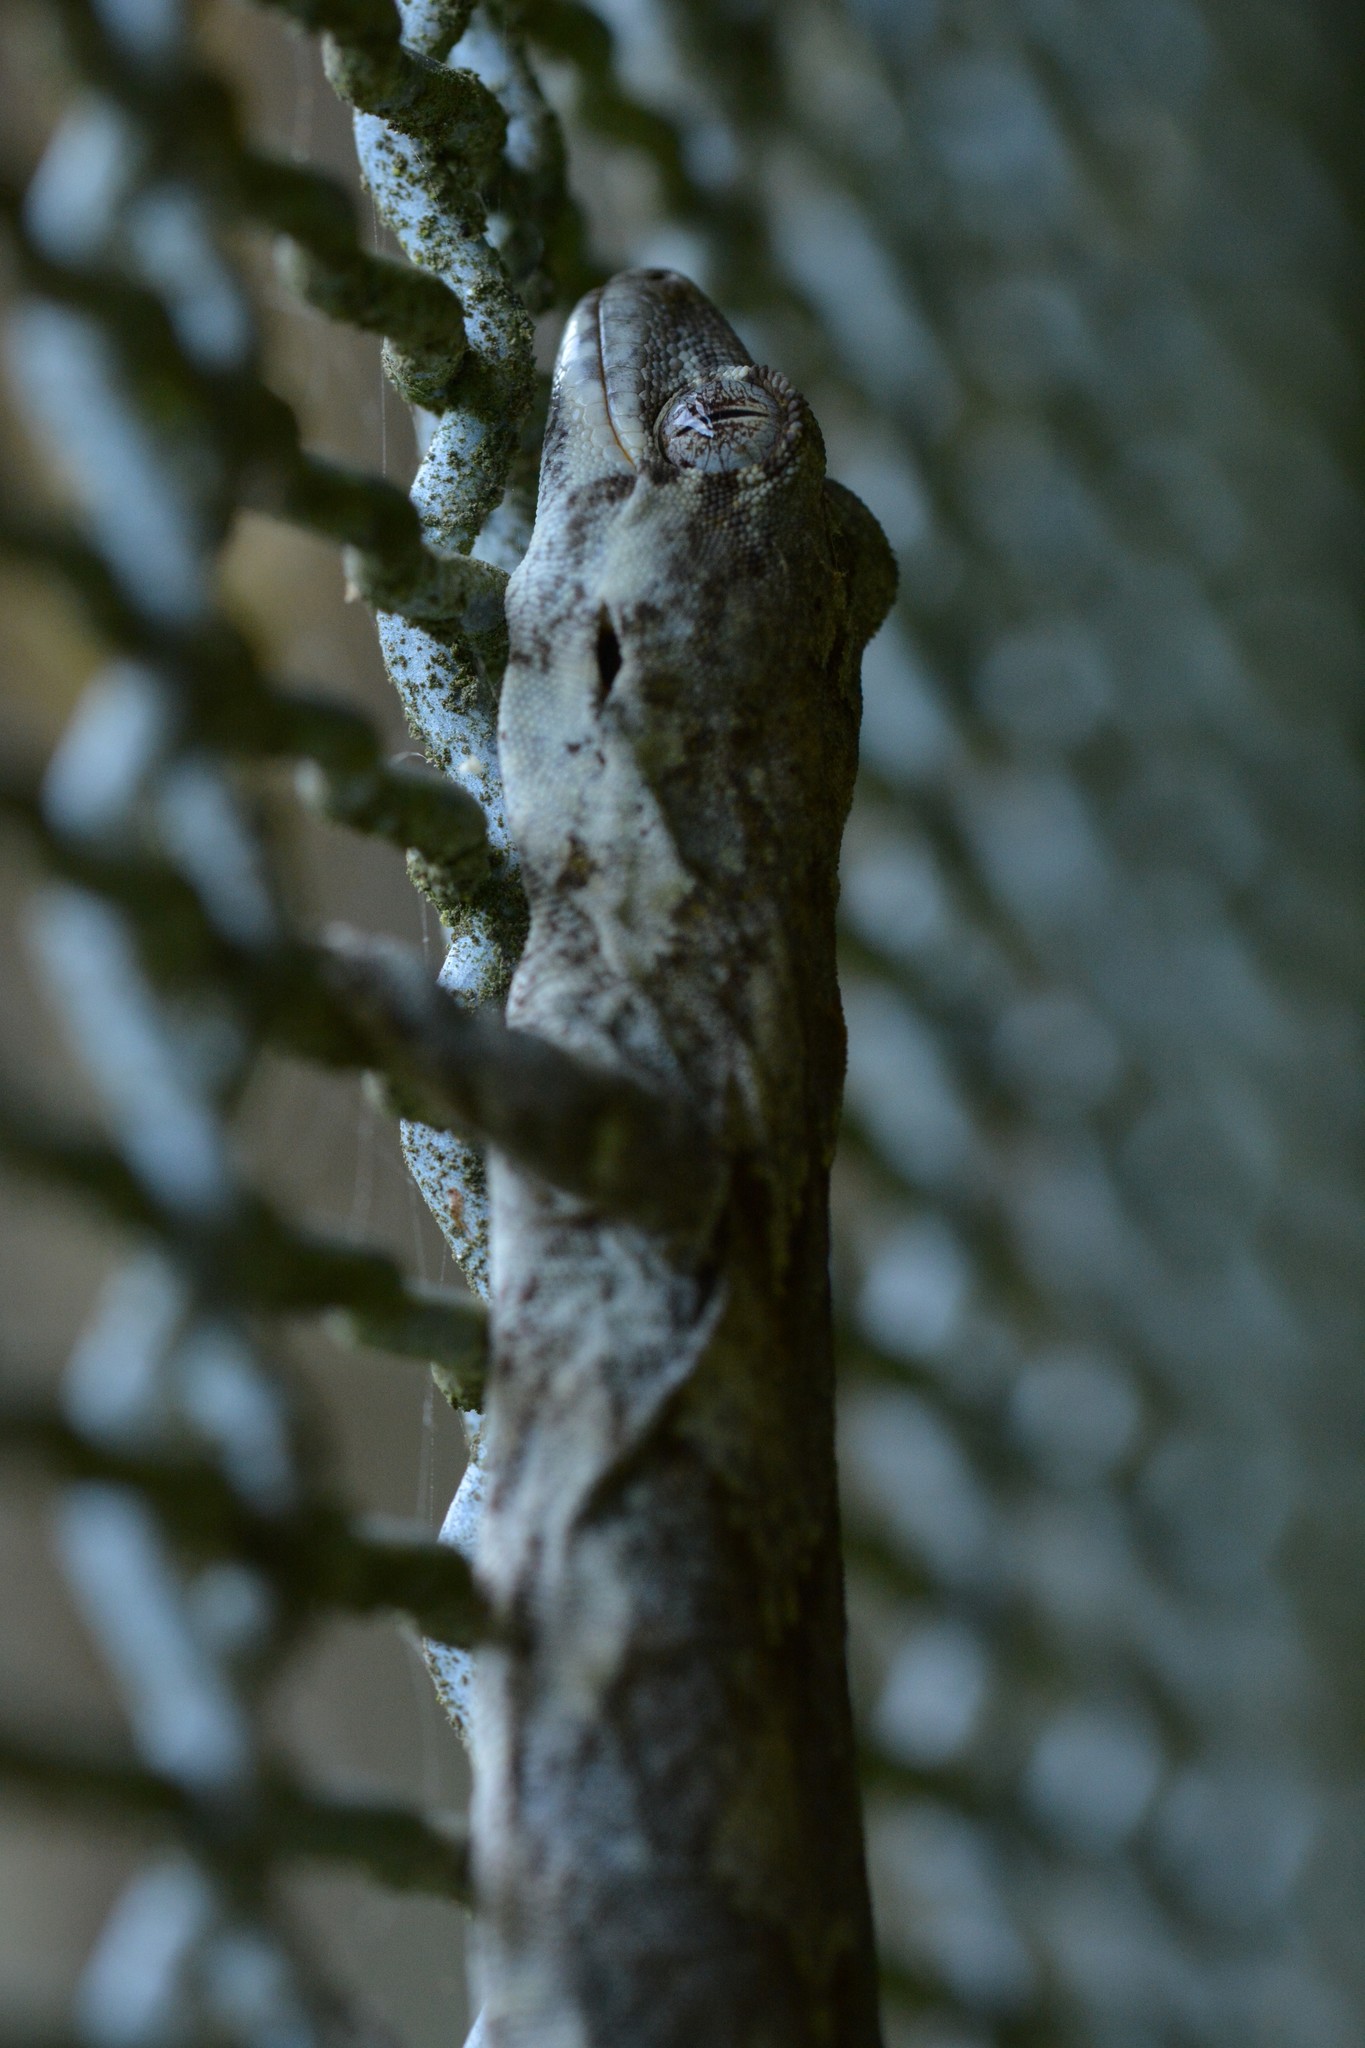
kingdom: Animalia
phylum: Chordata
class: Squamata
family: Diplodactylidae
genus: Mokopirirakau
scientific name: Mokopirirakau
